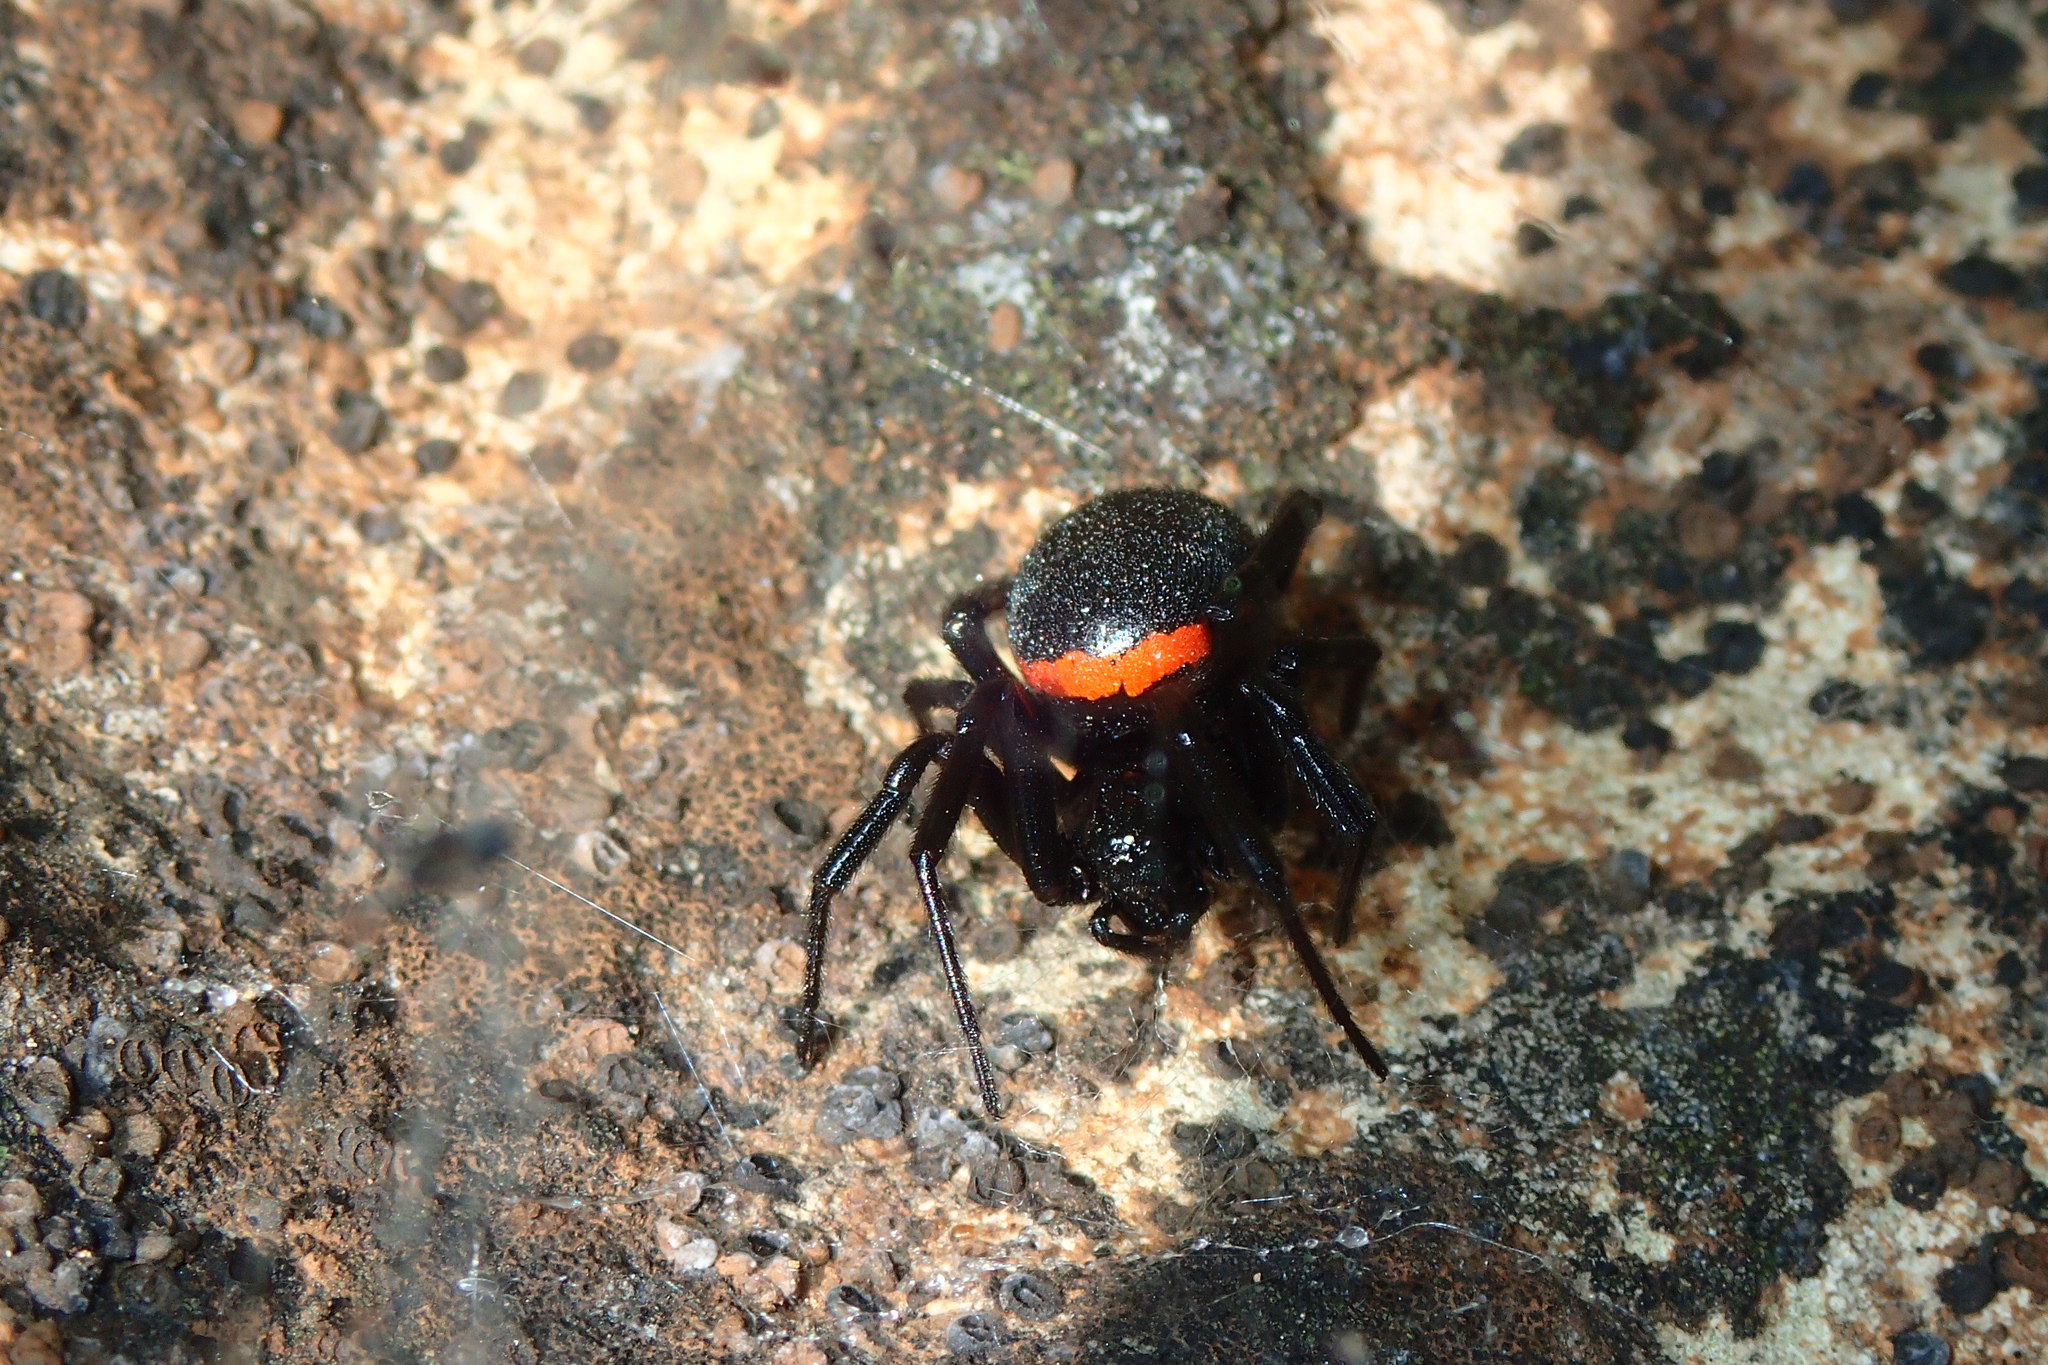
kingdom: Animalia
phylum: Arthropoda
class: Arachnida
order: Araneae
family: Theridiidae
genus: Steatoda
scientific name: Steatoda paykulliana
